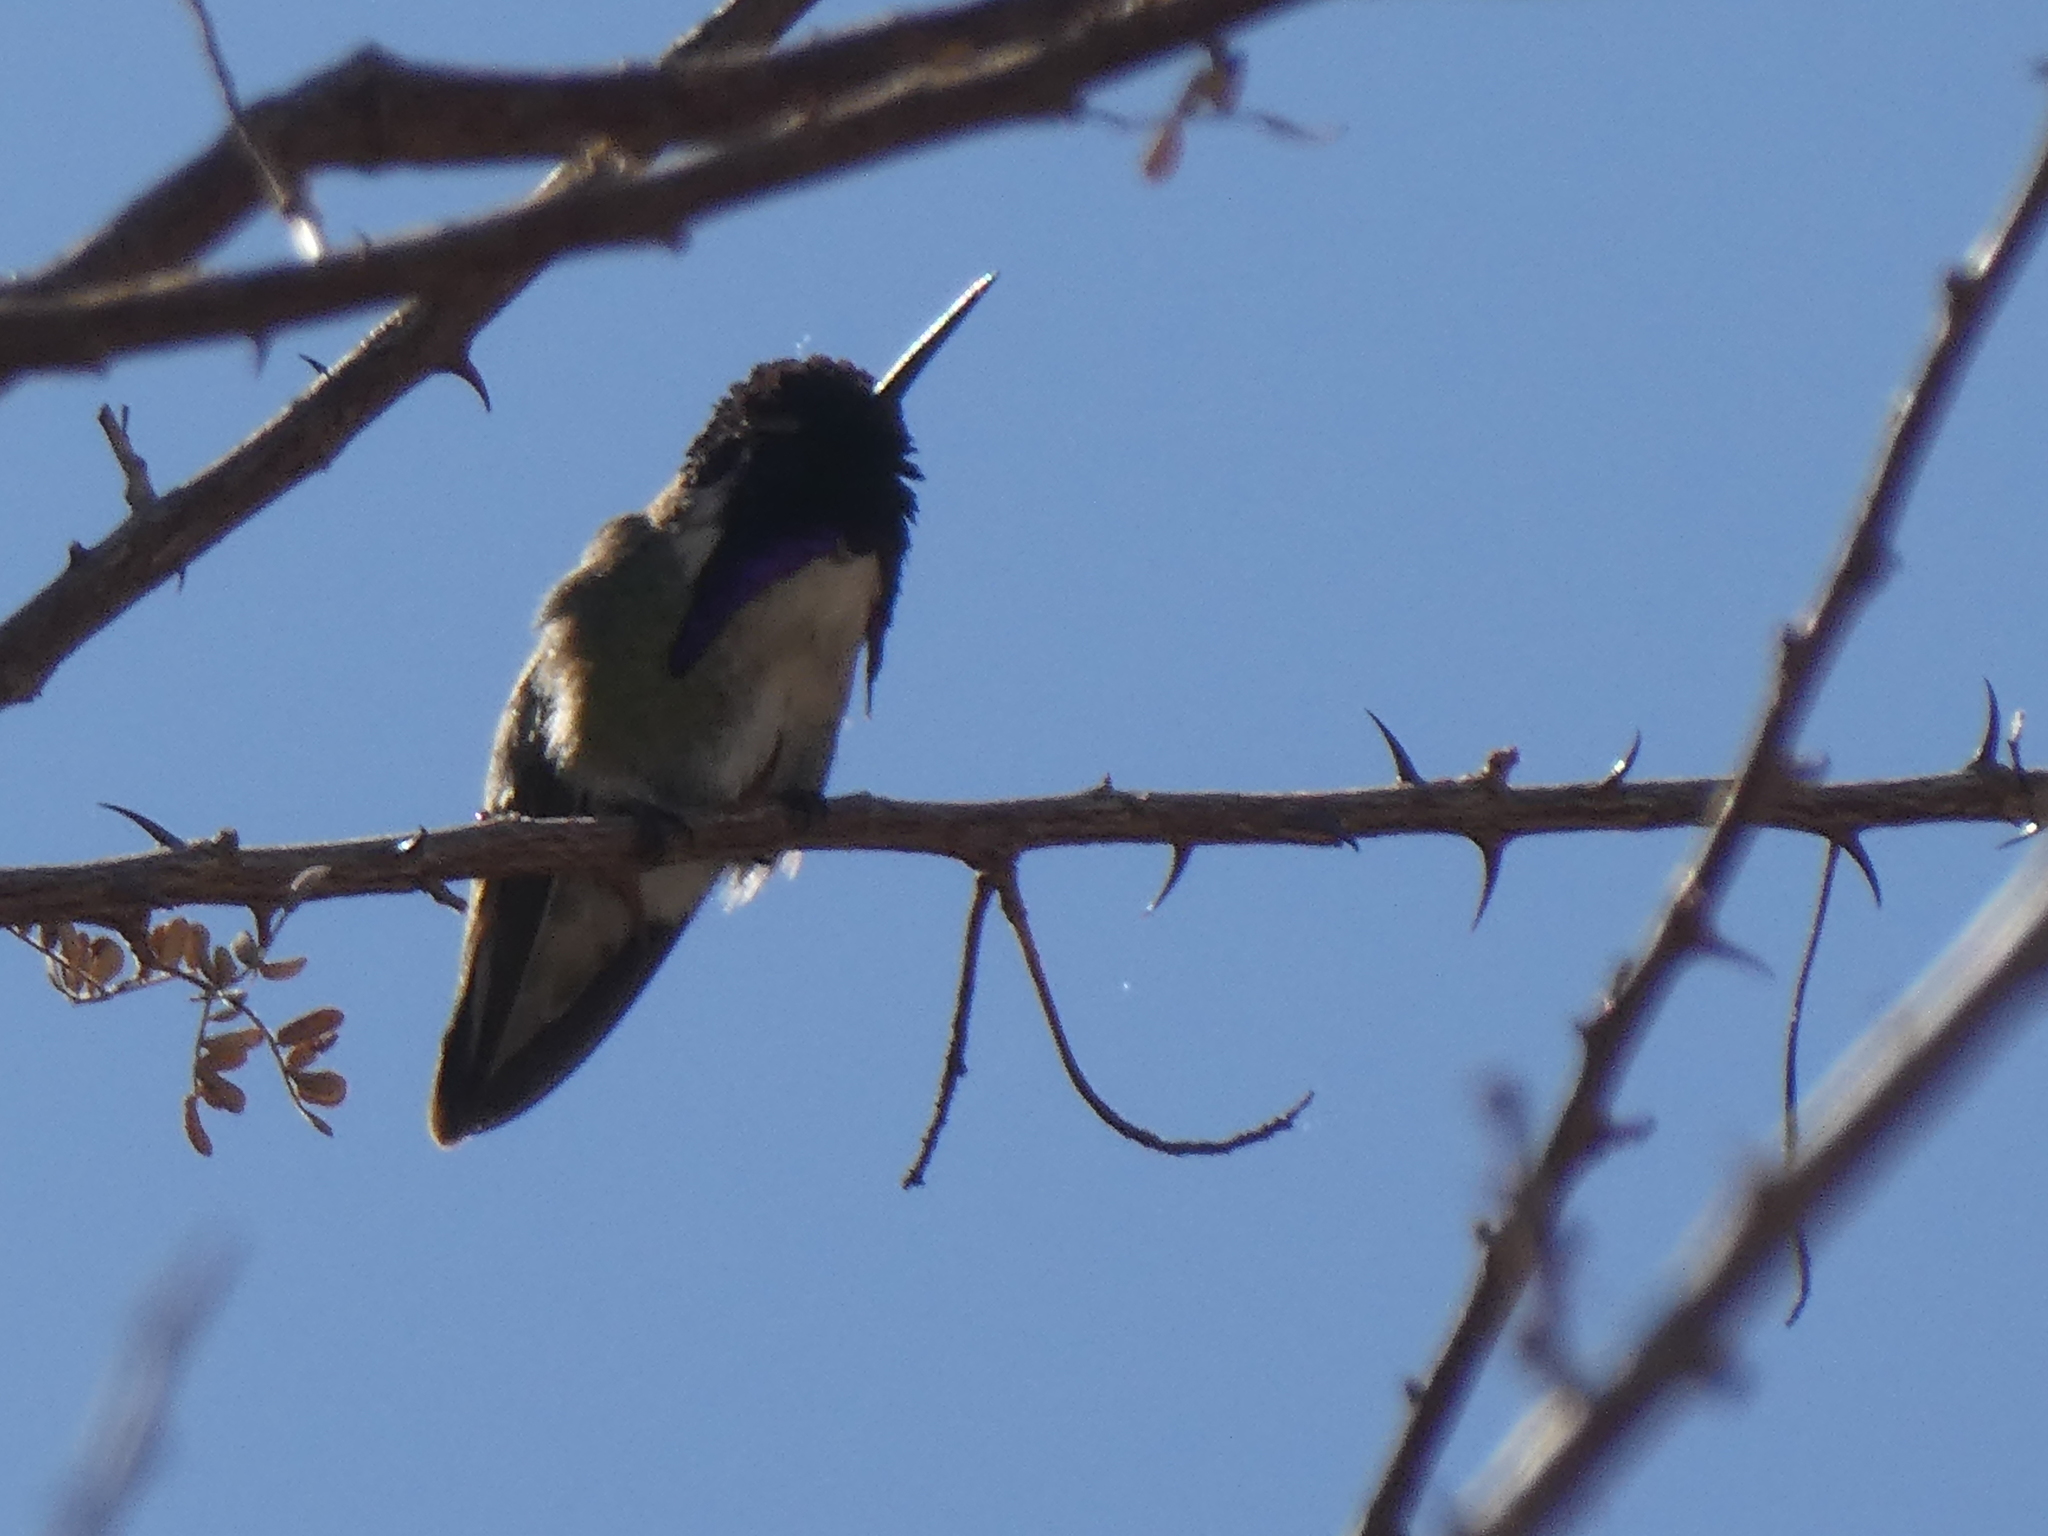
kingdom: Animalia
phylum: Chordata
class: Aves
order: Apodiformes
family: Trochilidae
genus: Calypte
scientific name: Calypte costae
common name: Costa's hummingbird
